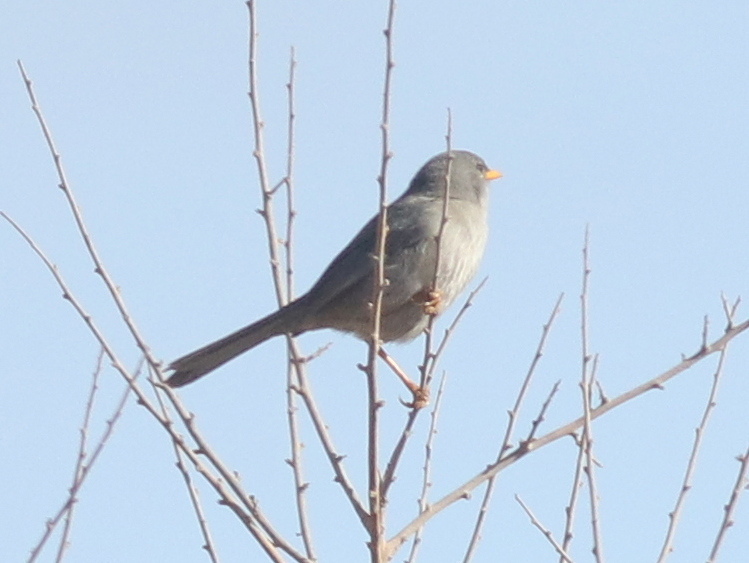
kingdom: Animalia
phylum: Chordata
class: Aves
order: Passeriformes
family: Thraupidae
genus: Xenospingus
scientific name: Xenospingus concolor
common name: Slender-billed finch
